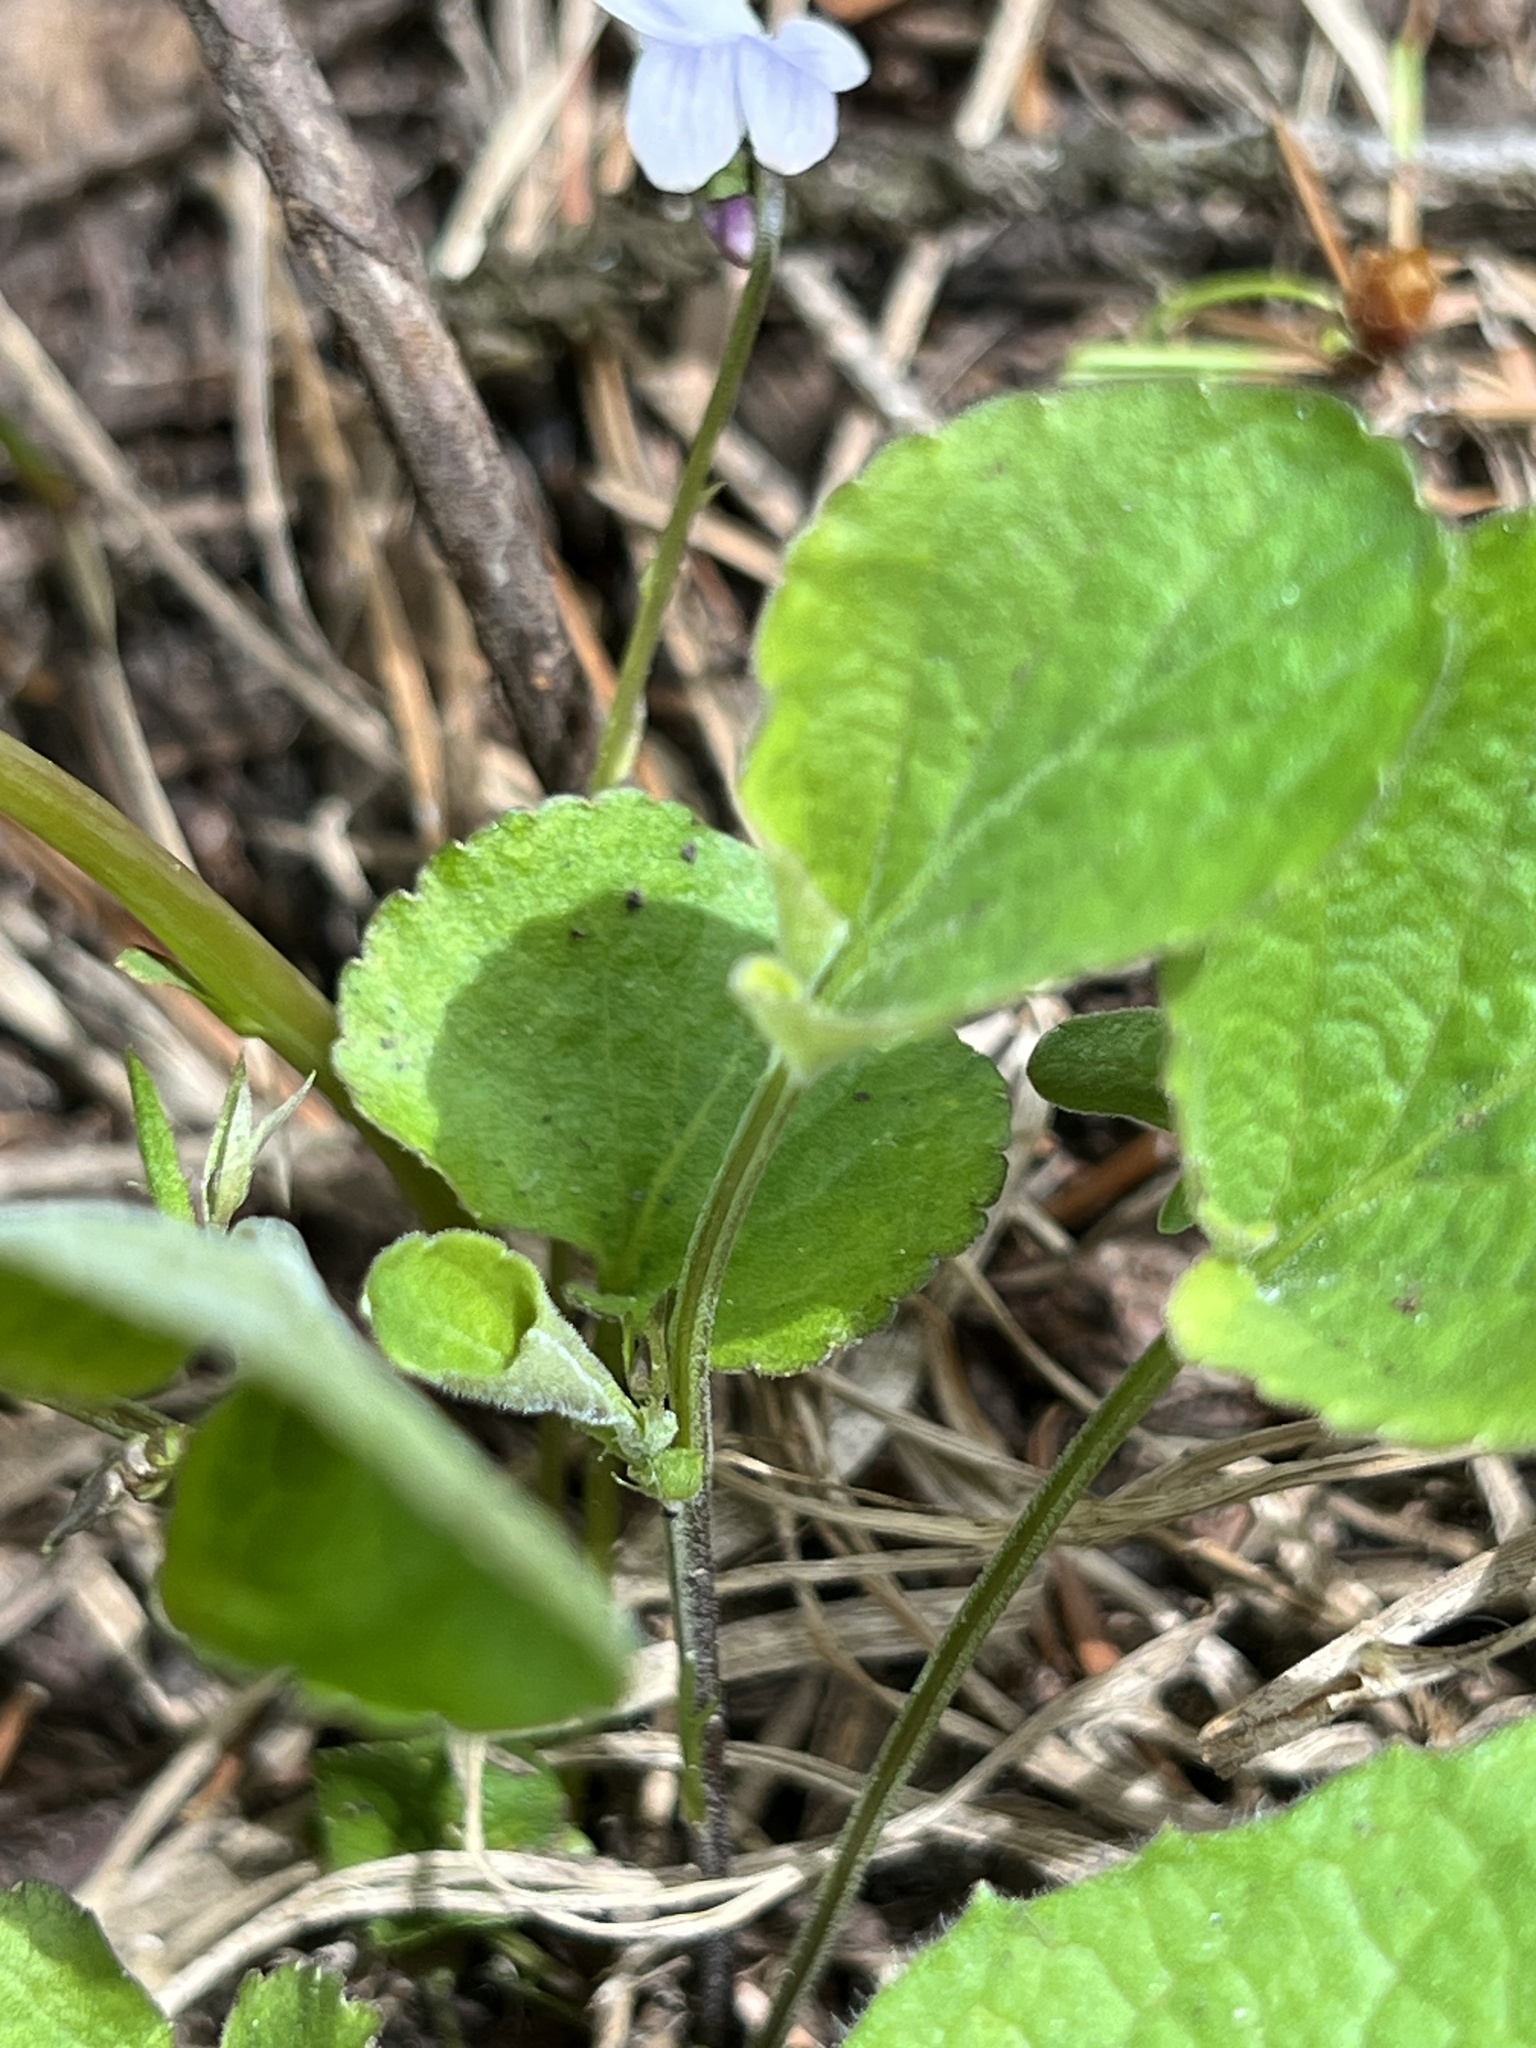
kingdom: Plantae
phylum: Tracheophyta
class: Magnoliopsida
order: Malpighiales
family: Violaceae
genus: Viola
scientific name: Viola adunca
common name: Sand violet
